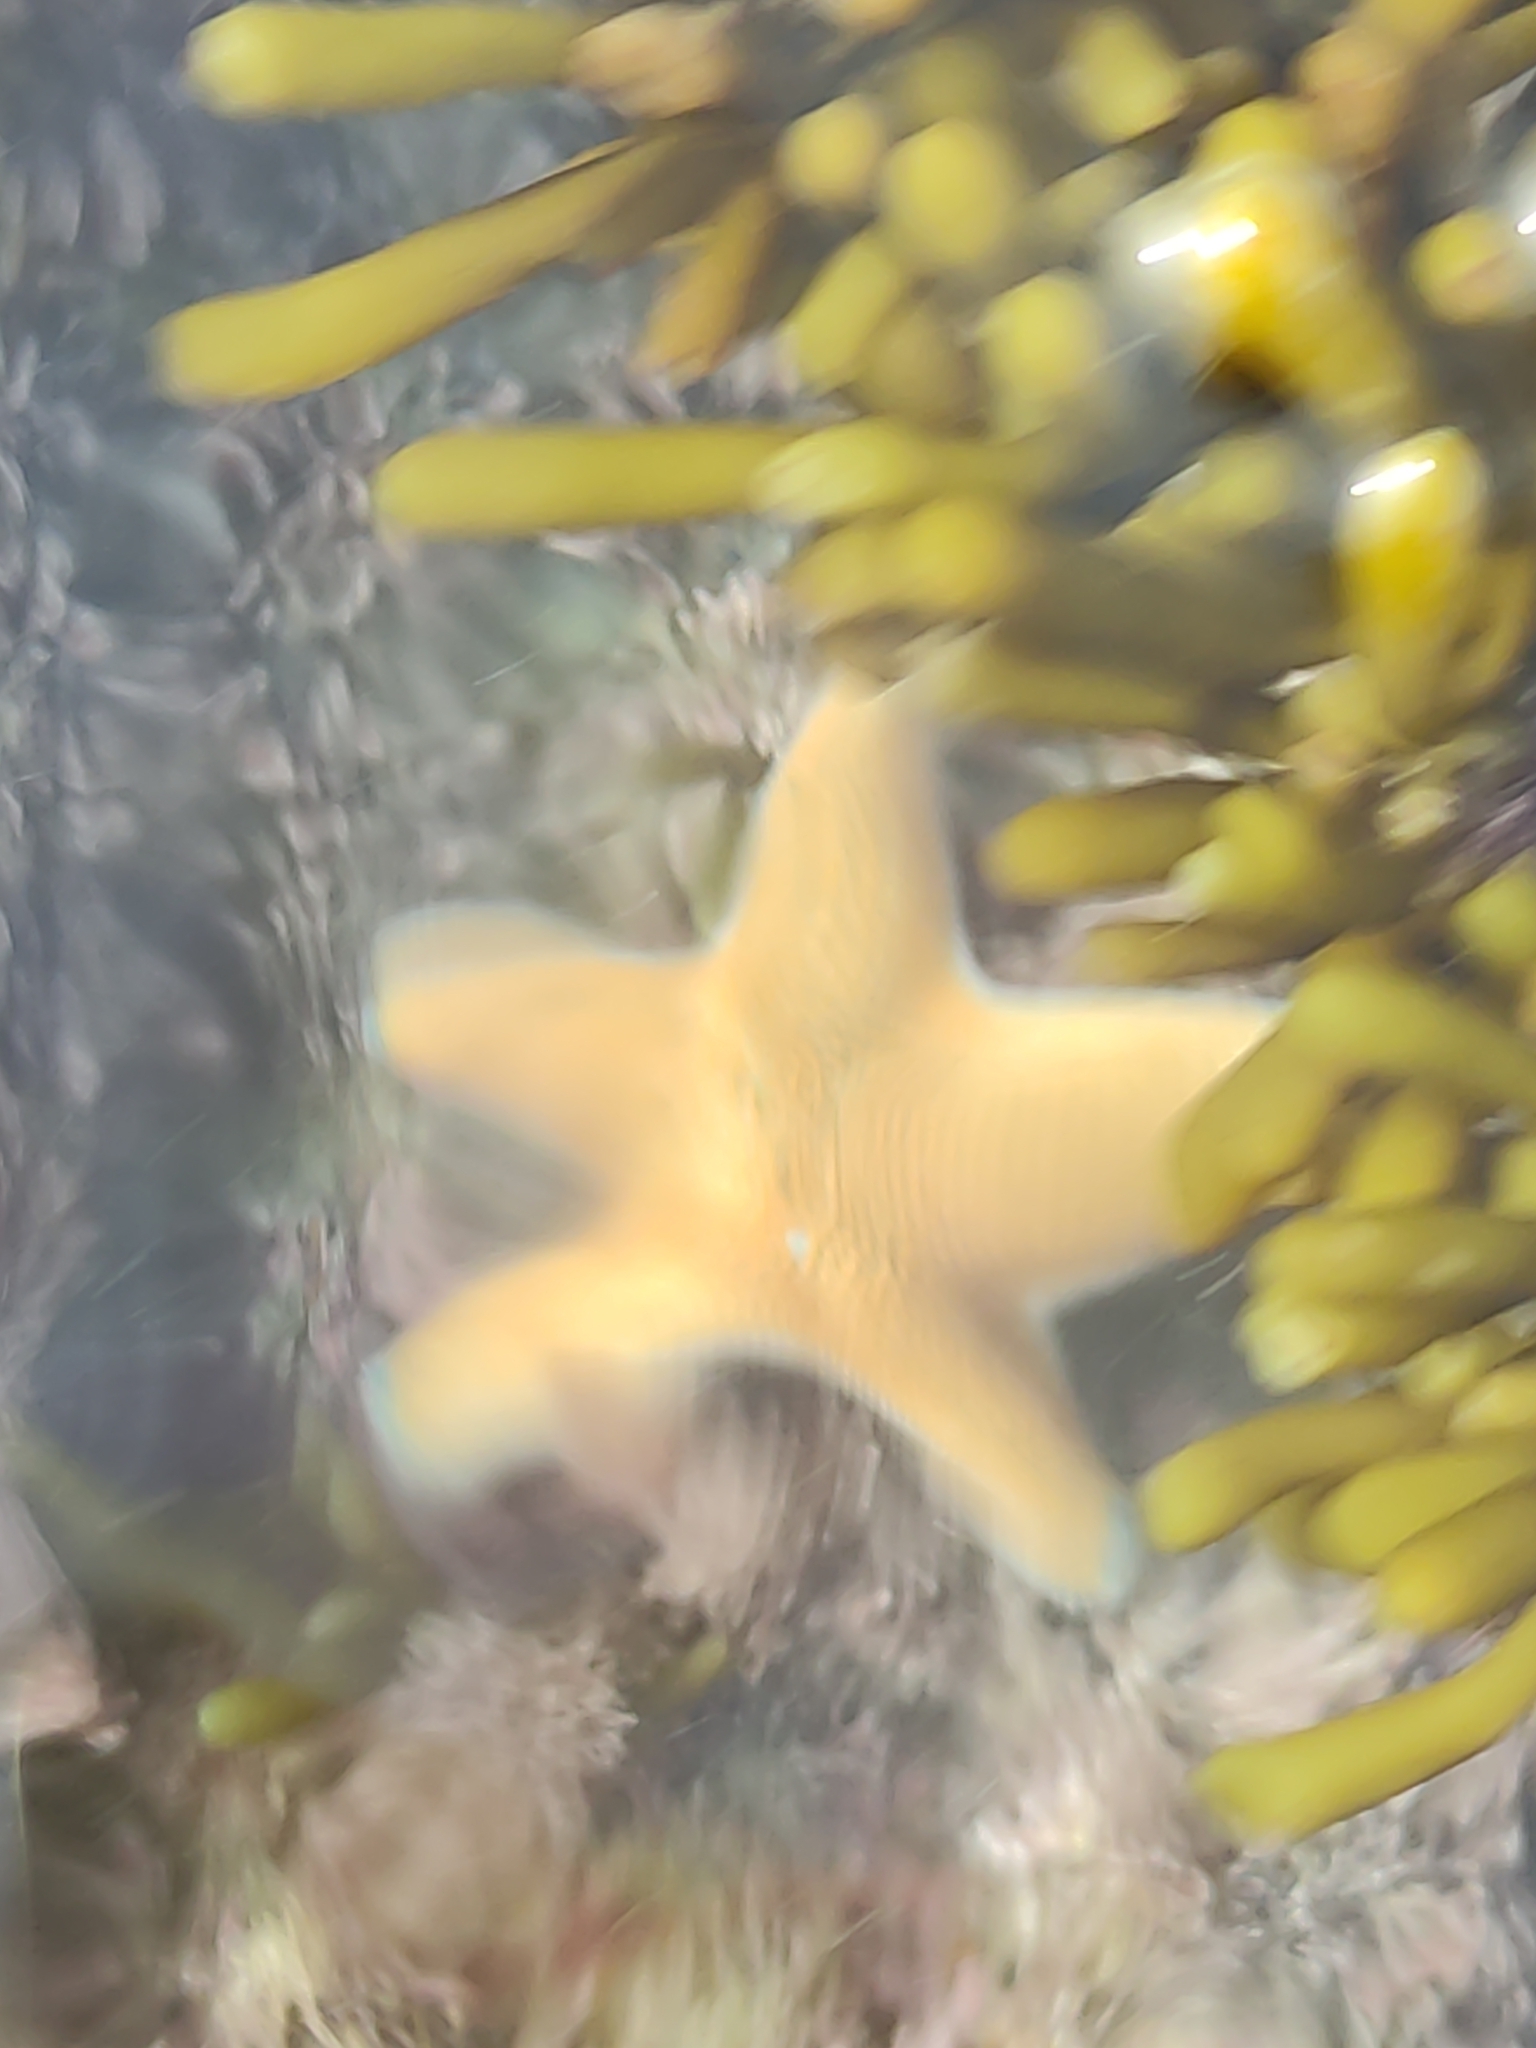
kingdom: Animalia
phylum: Echinodermata
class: Asteroidea
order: Valvatida
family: Asterinidae
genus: Patiriella
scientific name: Patiriella regularis
